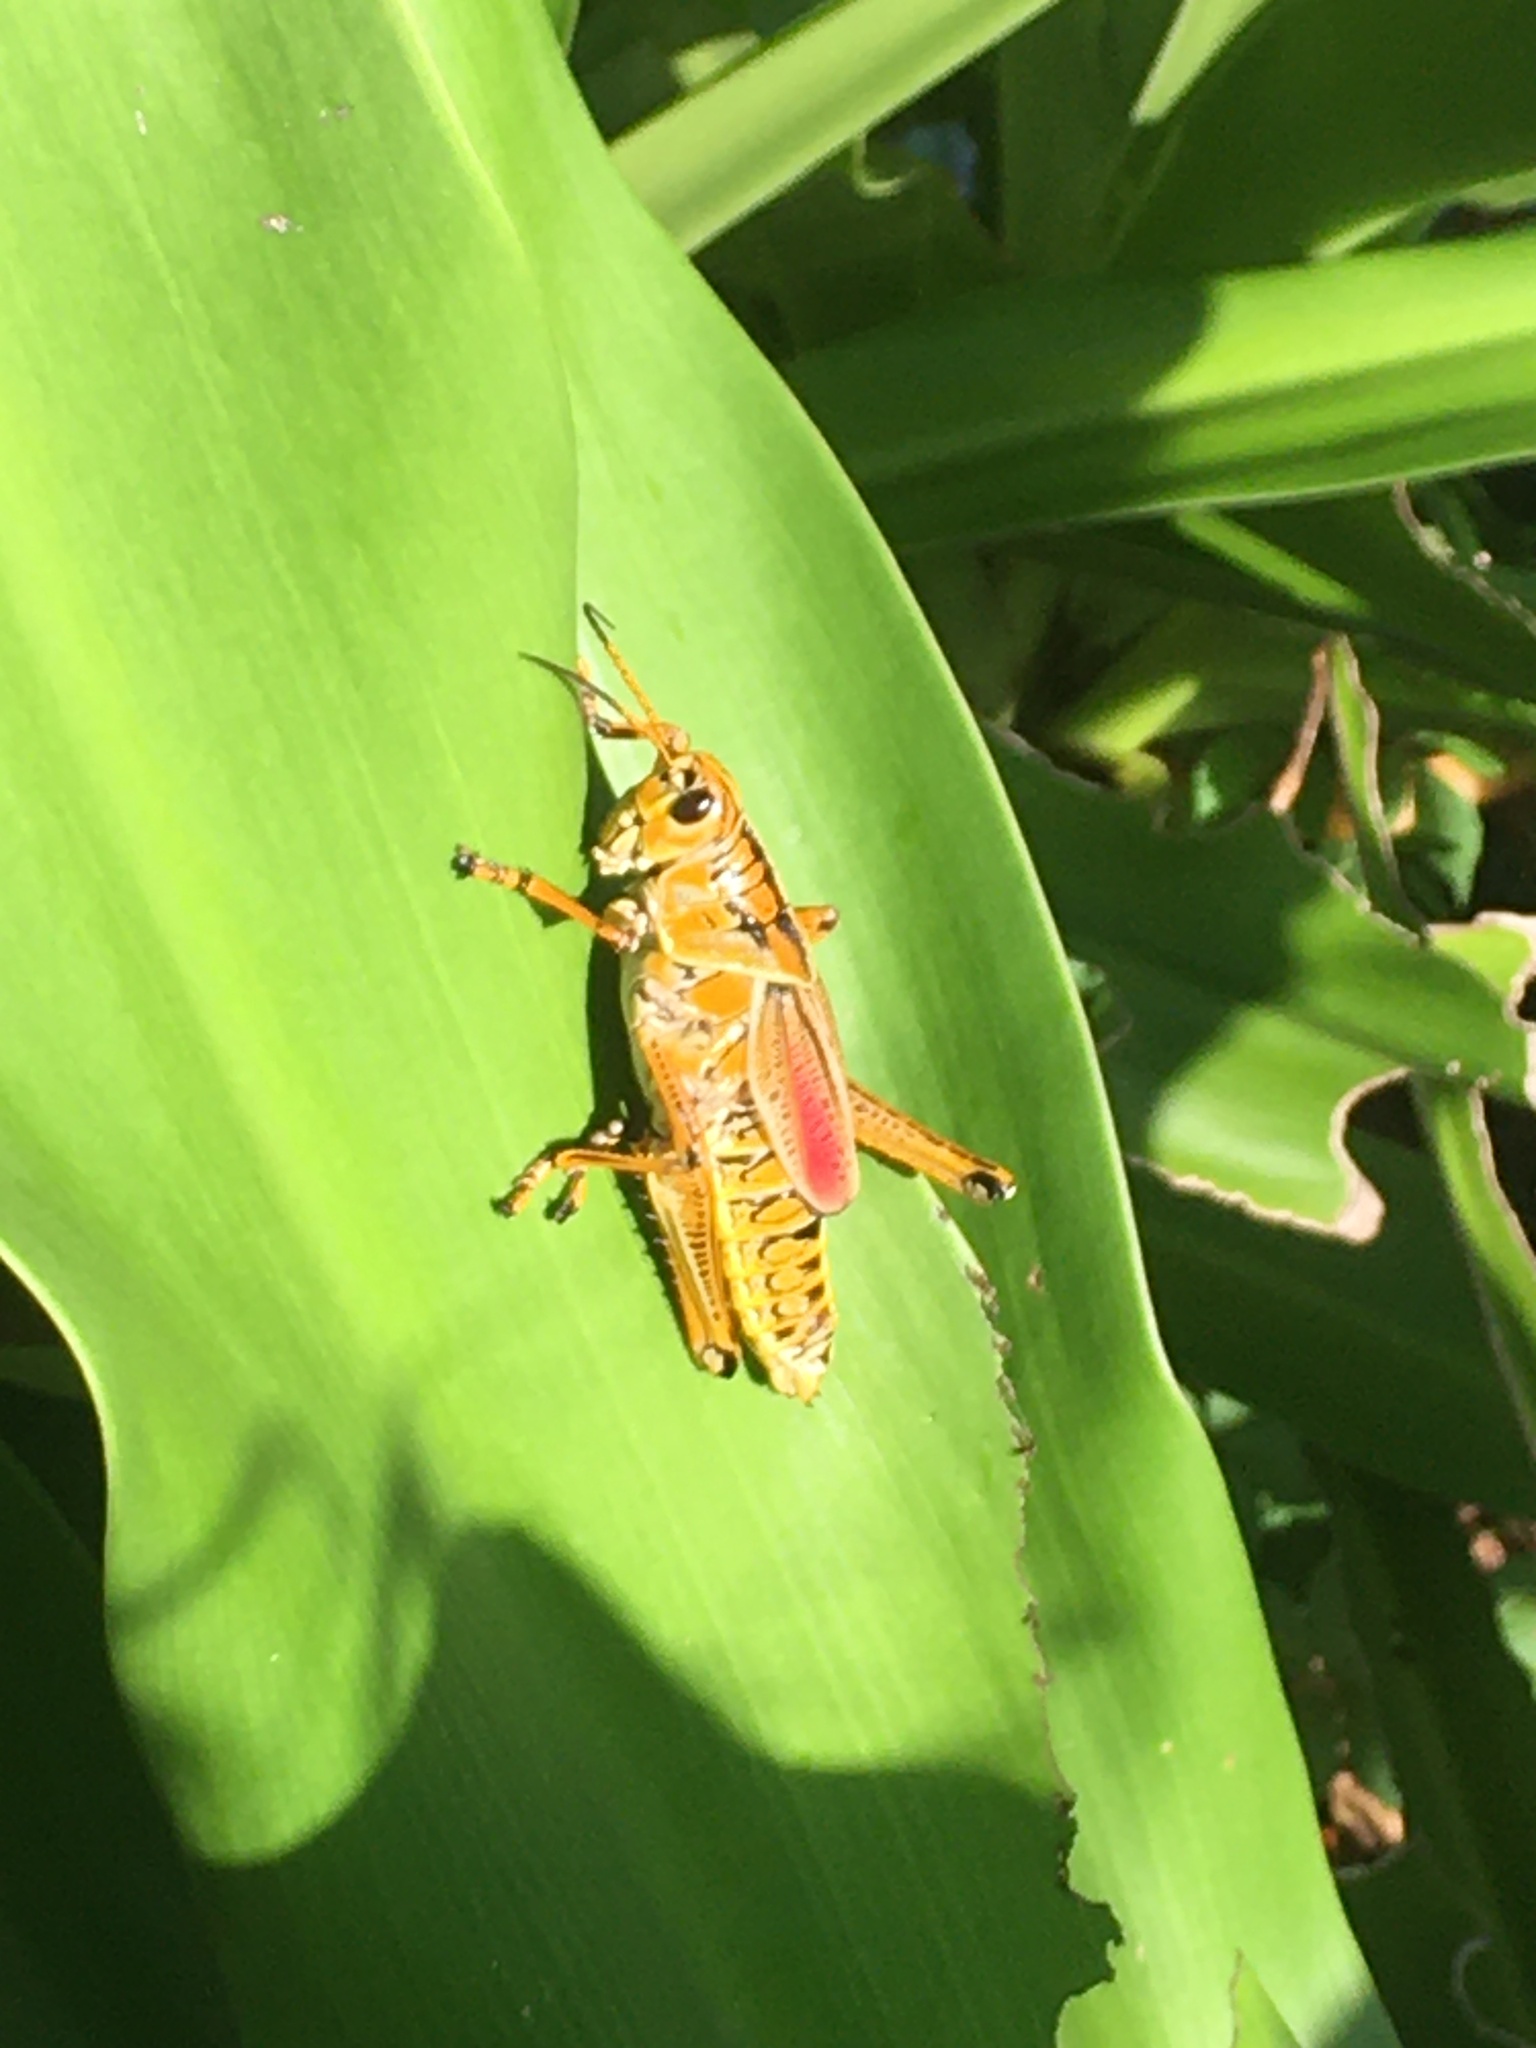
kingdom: Animalia
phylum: Arthropoda
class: Insecta
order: Orthoptera
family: Romaleidae
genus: Romalea
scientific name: Romalea microptera
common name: Eastern lubber grasshopper
